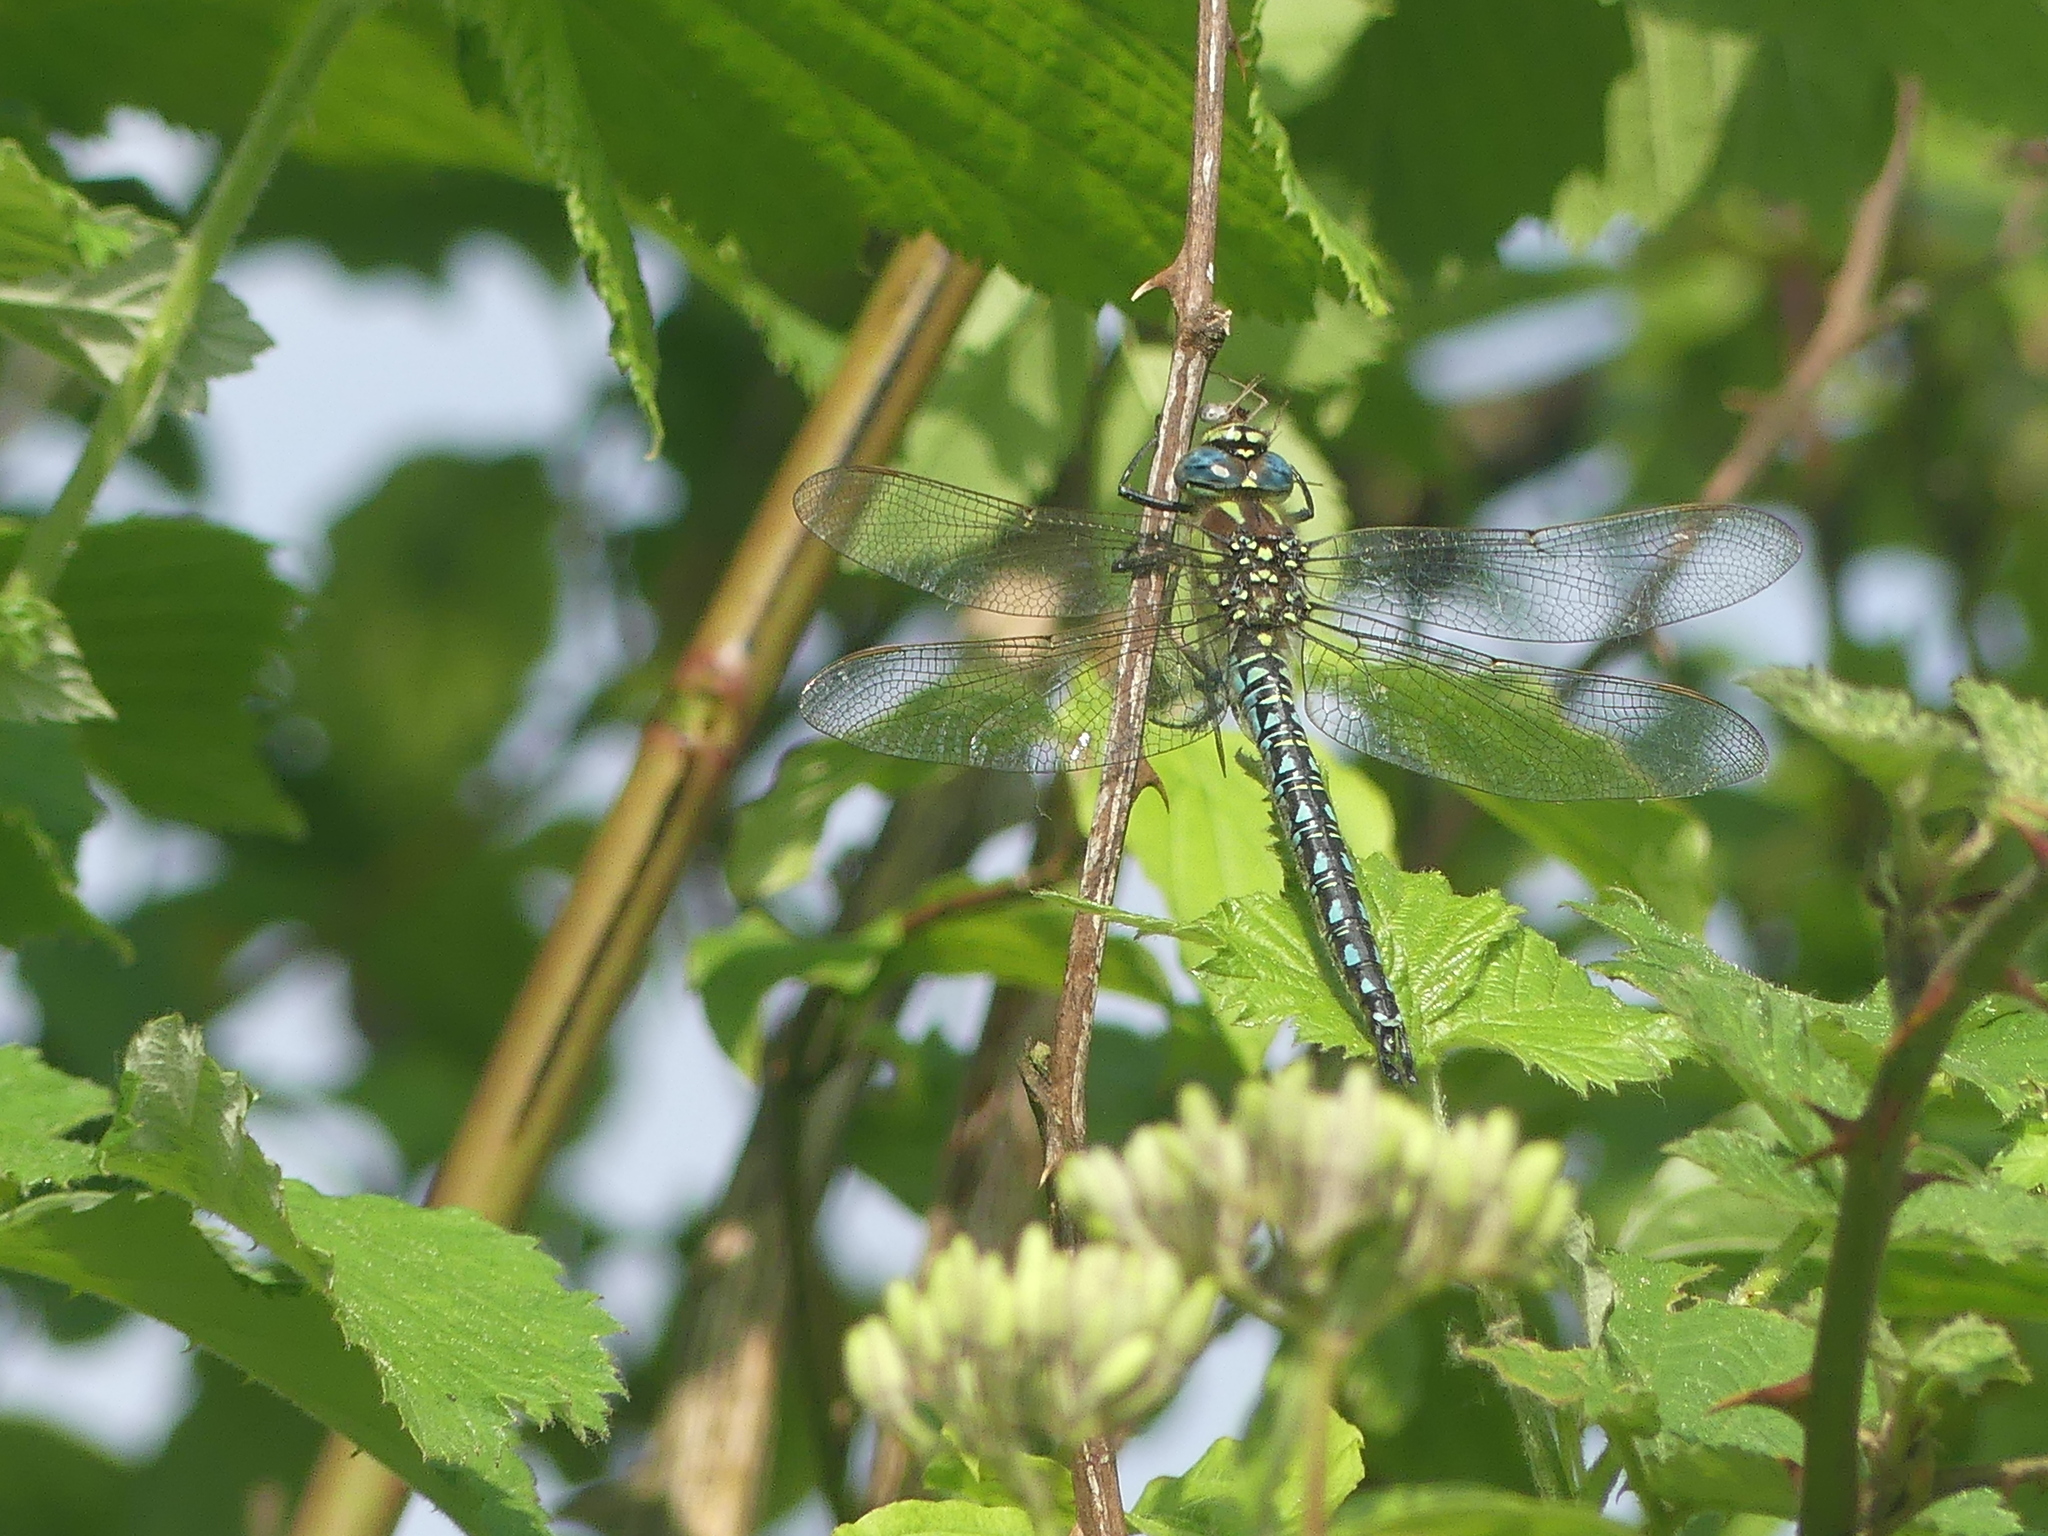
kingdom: Animalia
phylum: Arthropoda
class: Insecta
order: Odonata
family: Aeshnidae
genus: Brachytron
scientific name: Brachytron pratense
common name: Hairy hawker
